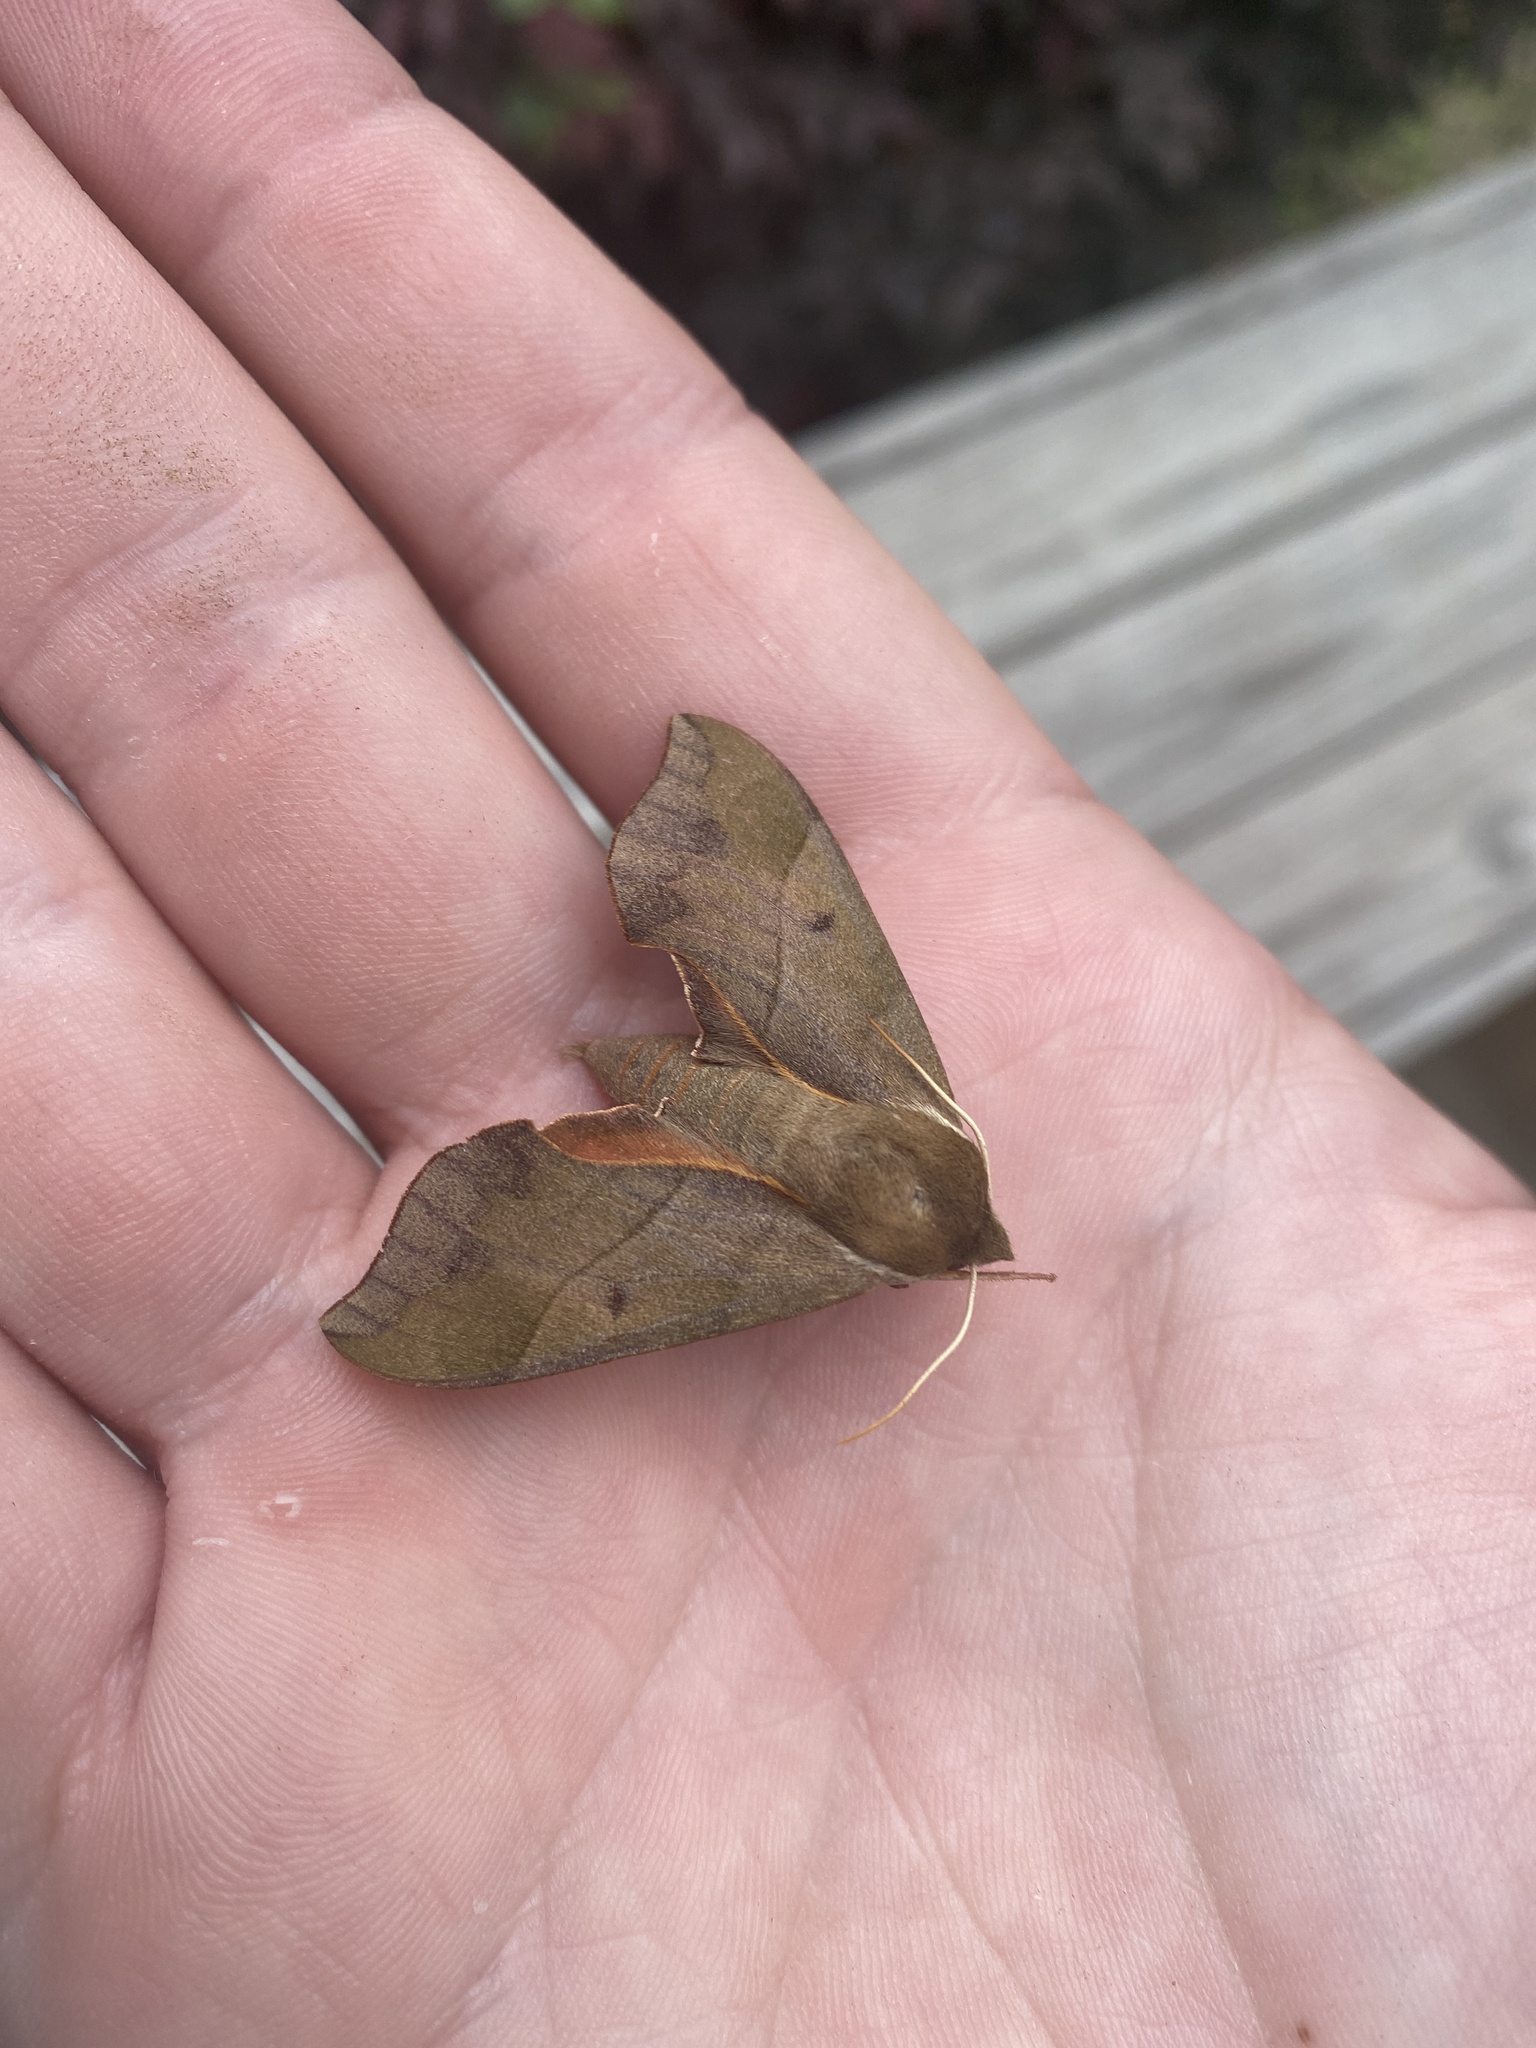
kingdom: Animalia
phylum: Arthropoda
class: Insecta
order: Lepidoptera
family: Sphingidae
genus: Darapsa
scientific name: Darapsa myron
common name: Hog sphinx
